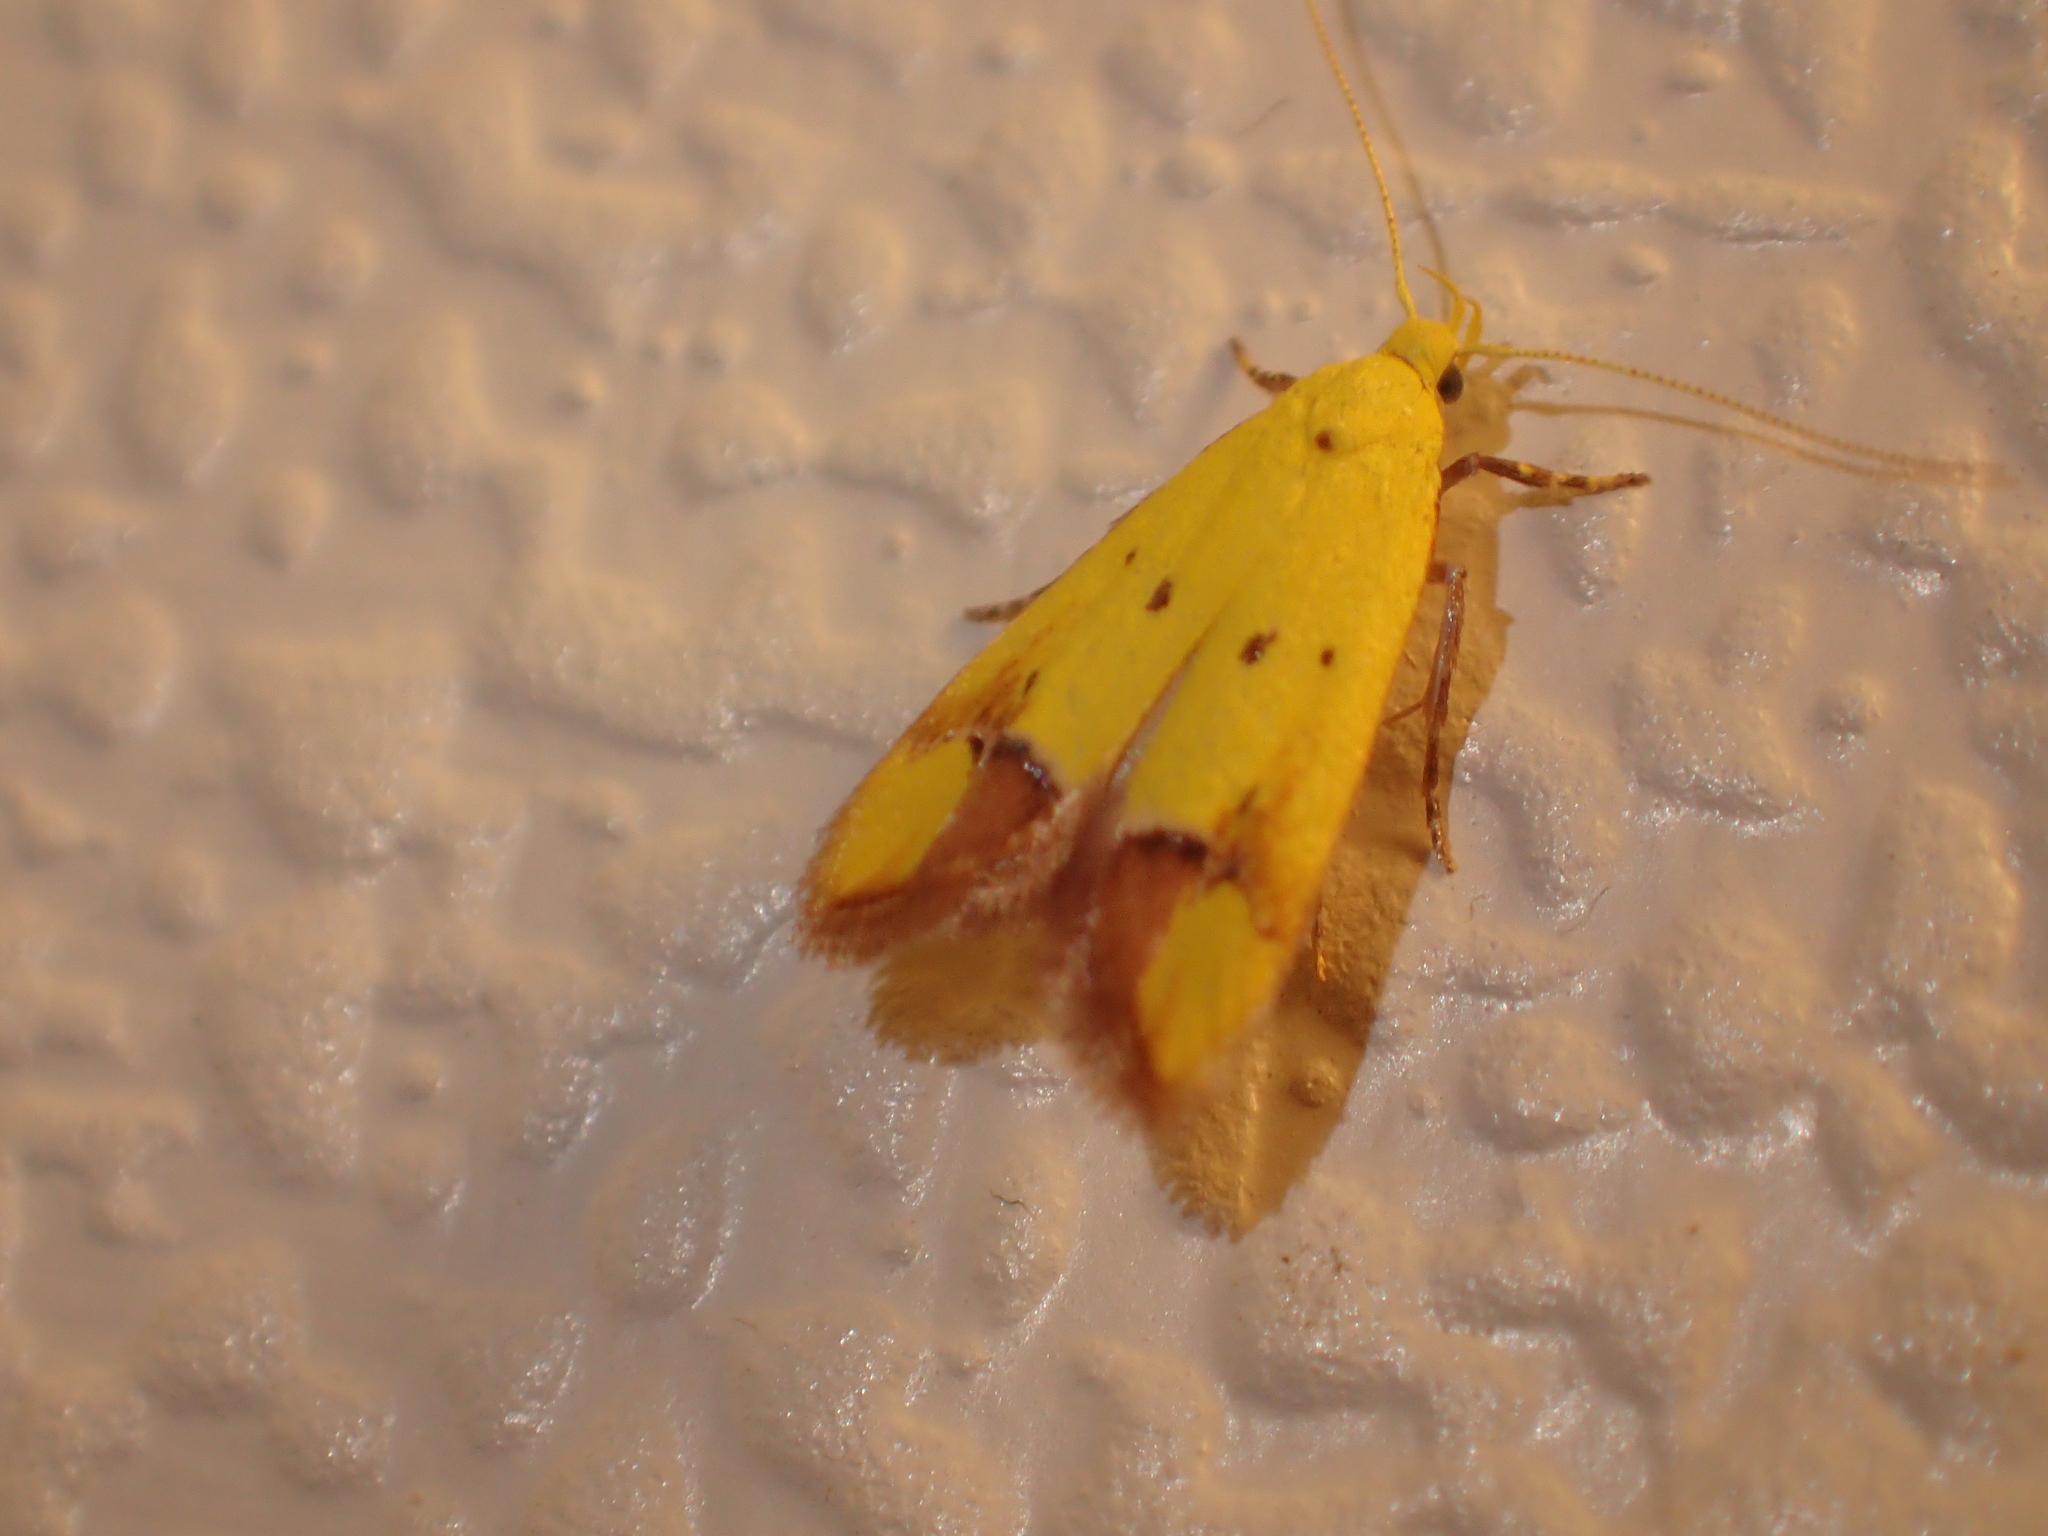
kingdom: Animalia
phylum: Arthropoda
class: Insecta
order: Lepidoptera
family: Oecophoridae
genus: Gymnobathra
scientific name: Gymnobathra flavidella
